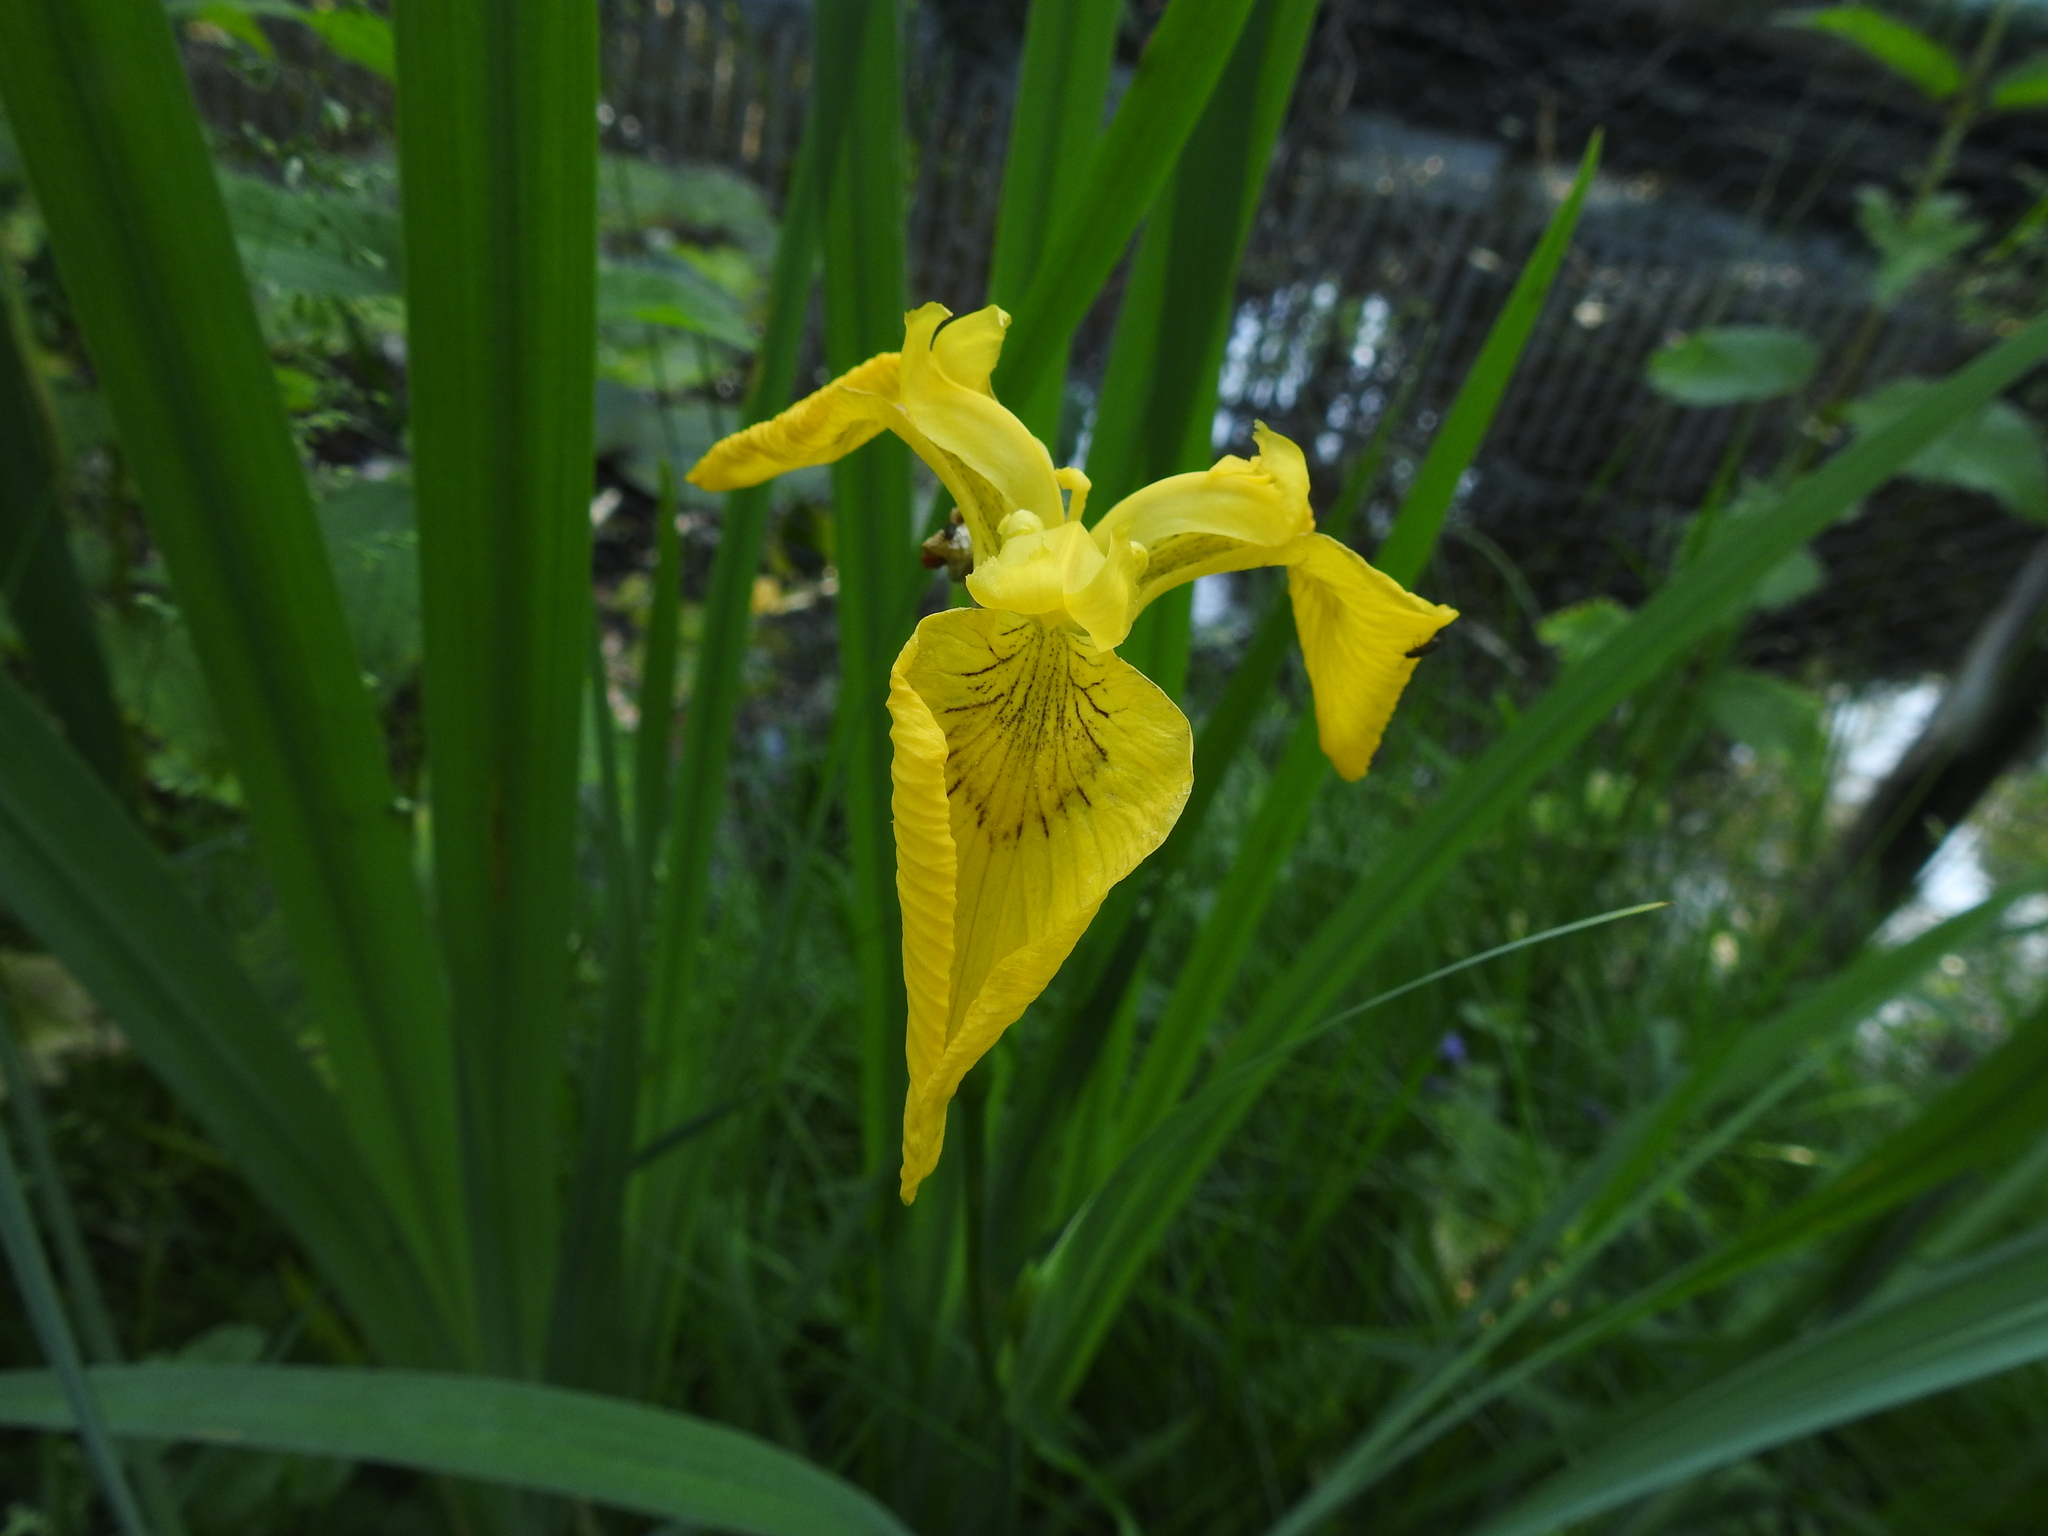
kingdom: Plantae
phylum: Tracheophyta
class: Liliopsida
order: Asparagales
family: Iridaceae
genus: Iris
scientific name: Iris pseudacorus
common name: Yellow flag
